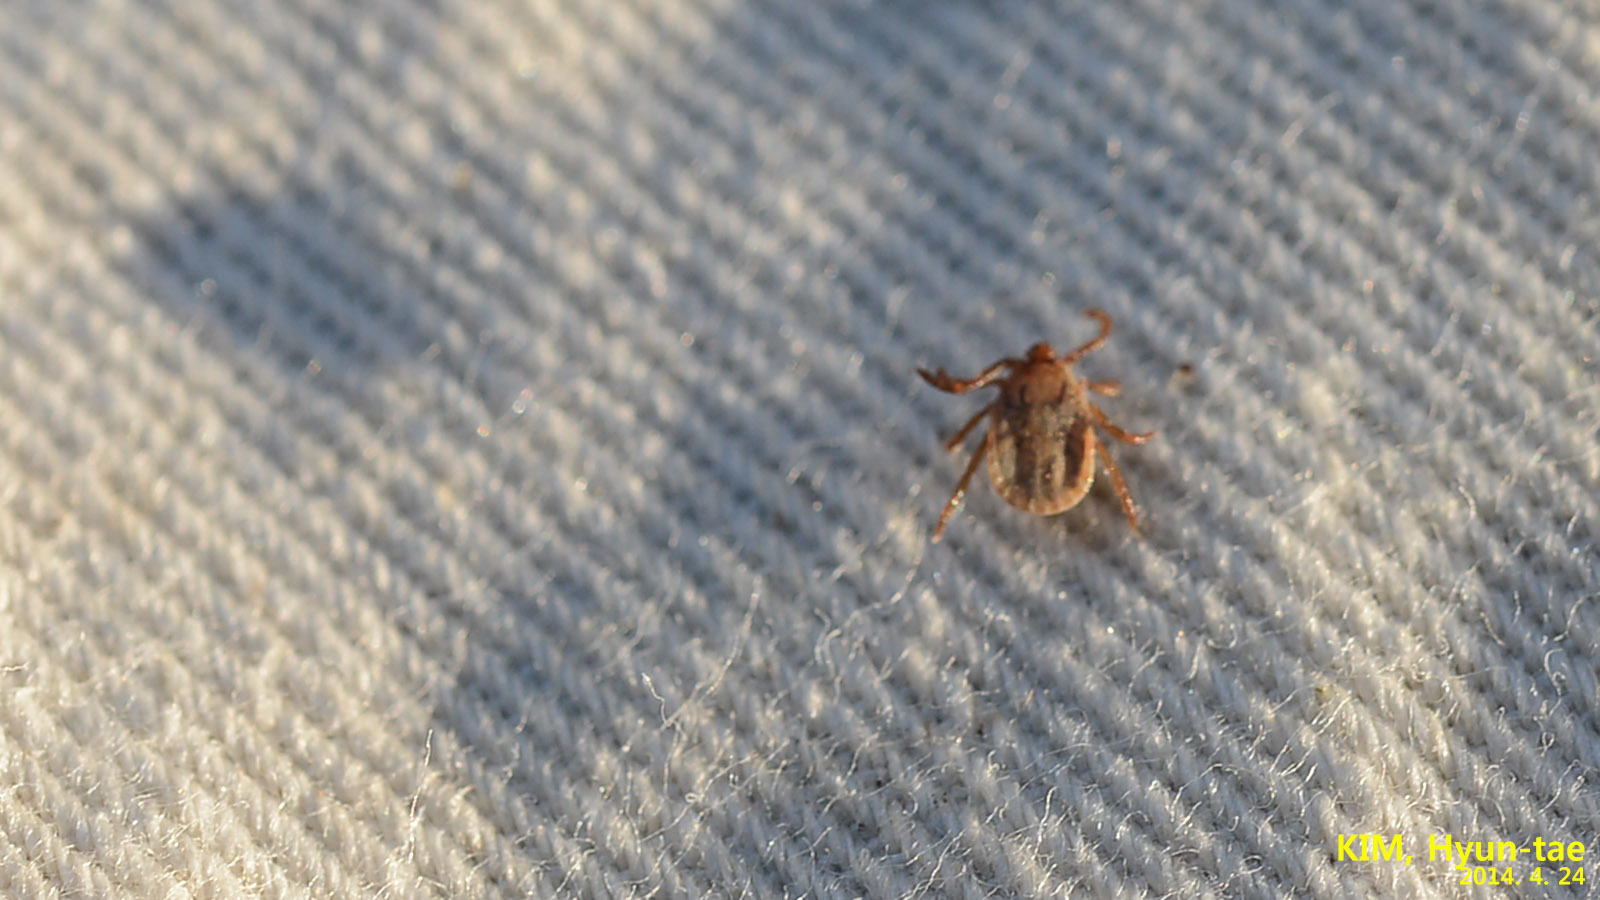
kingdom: Animalia
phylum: Arthropoda
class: Arachnida
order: Ixodida
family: Ixodidae
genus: Haemaphysalis
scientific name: Haemaphysalis longicornis
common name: Bush tick
